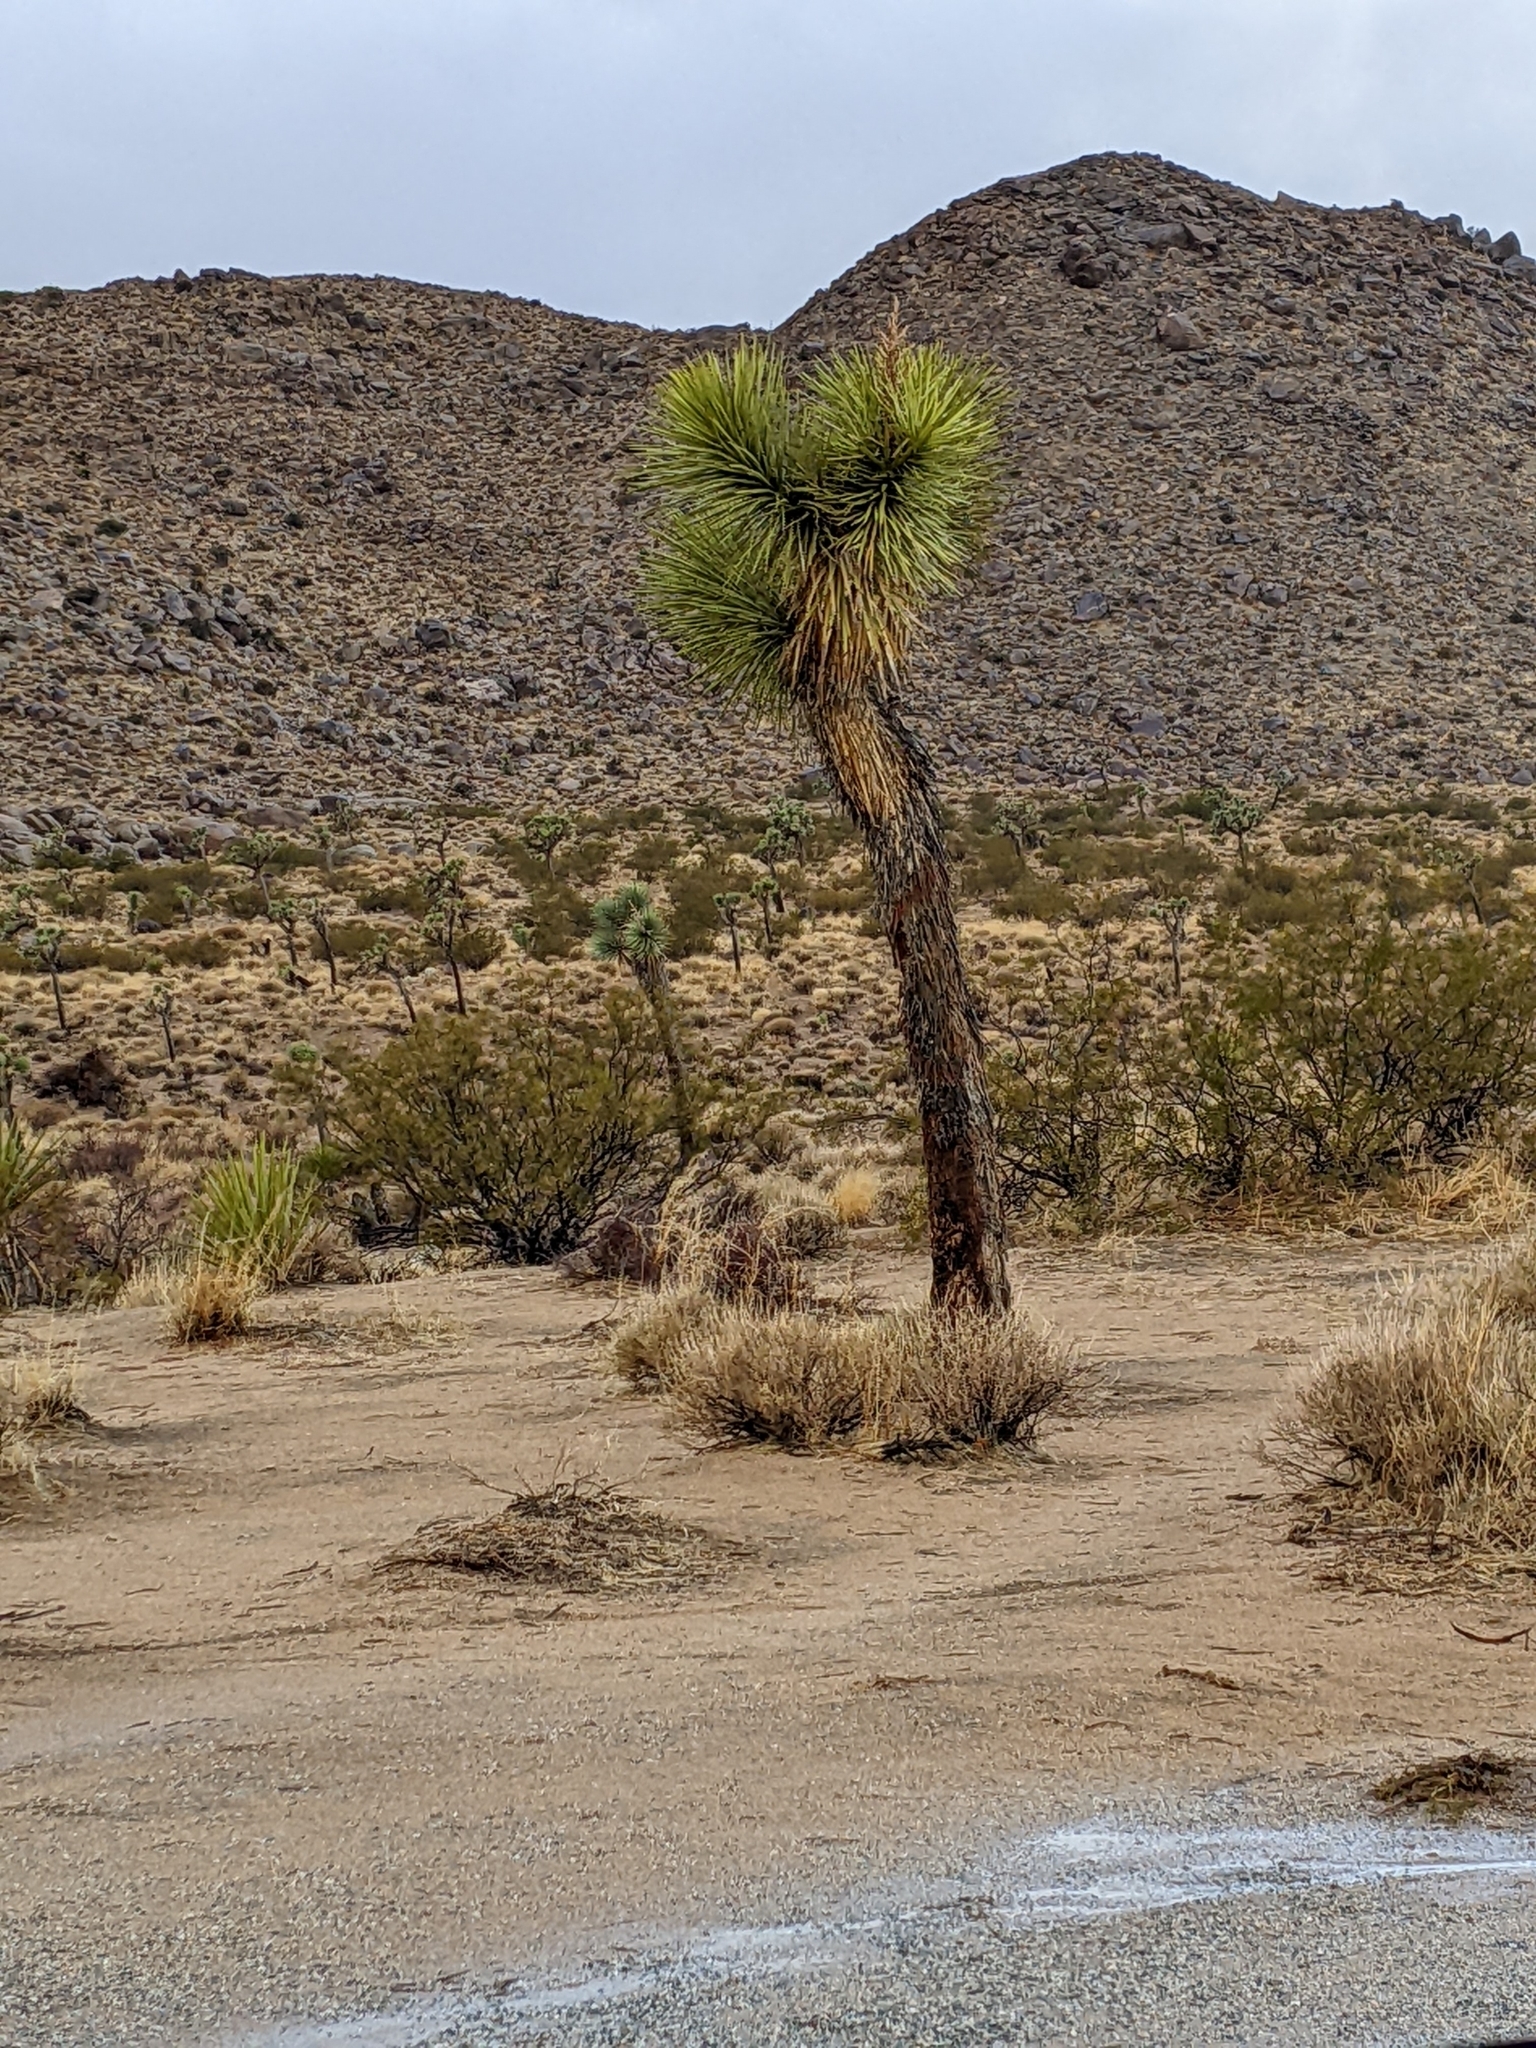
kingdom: Plantae
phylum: Tracheophyta
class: Liliopsida
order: Asparagales
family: Asparagaceae
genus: Yucca
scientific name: Yucca brevifolia
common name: Joshua tree
